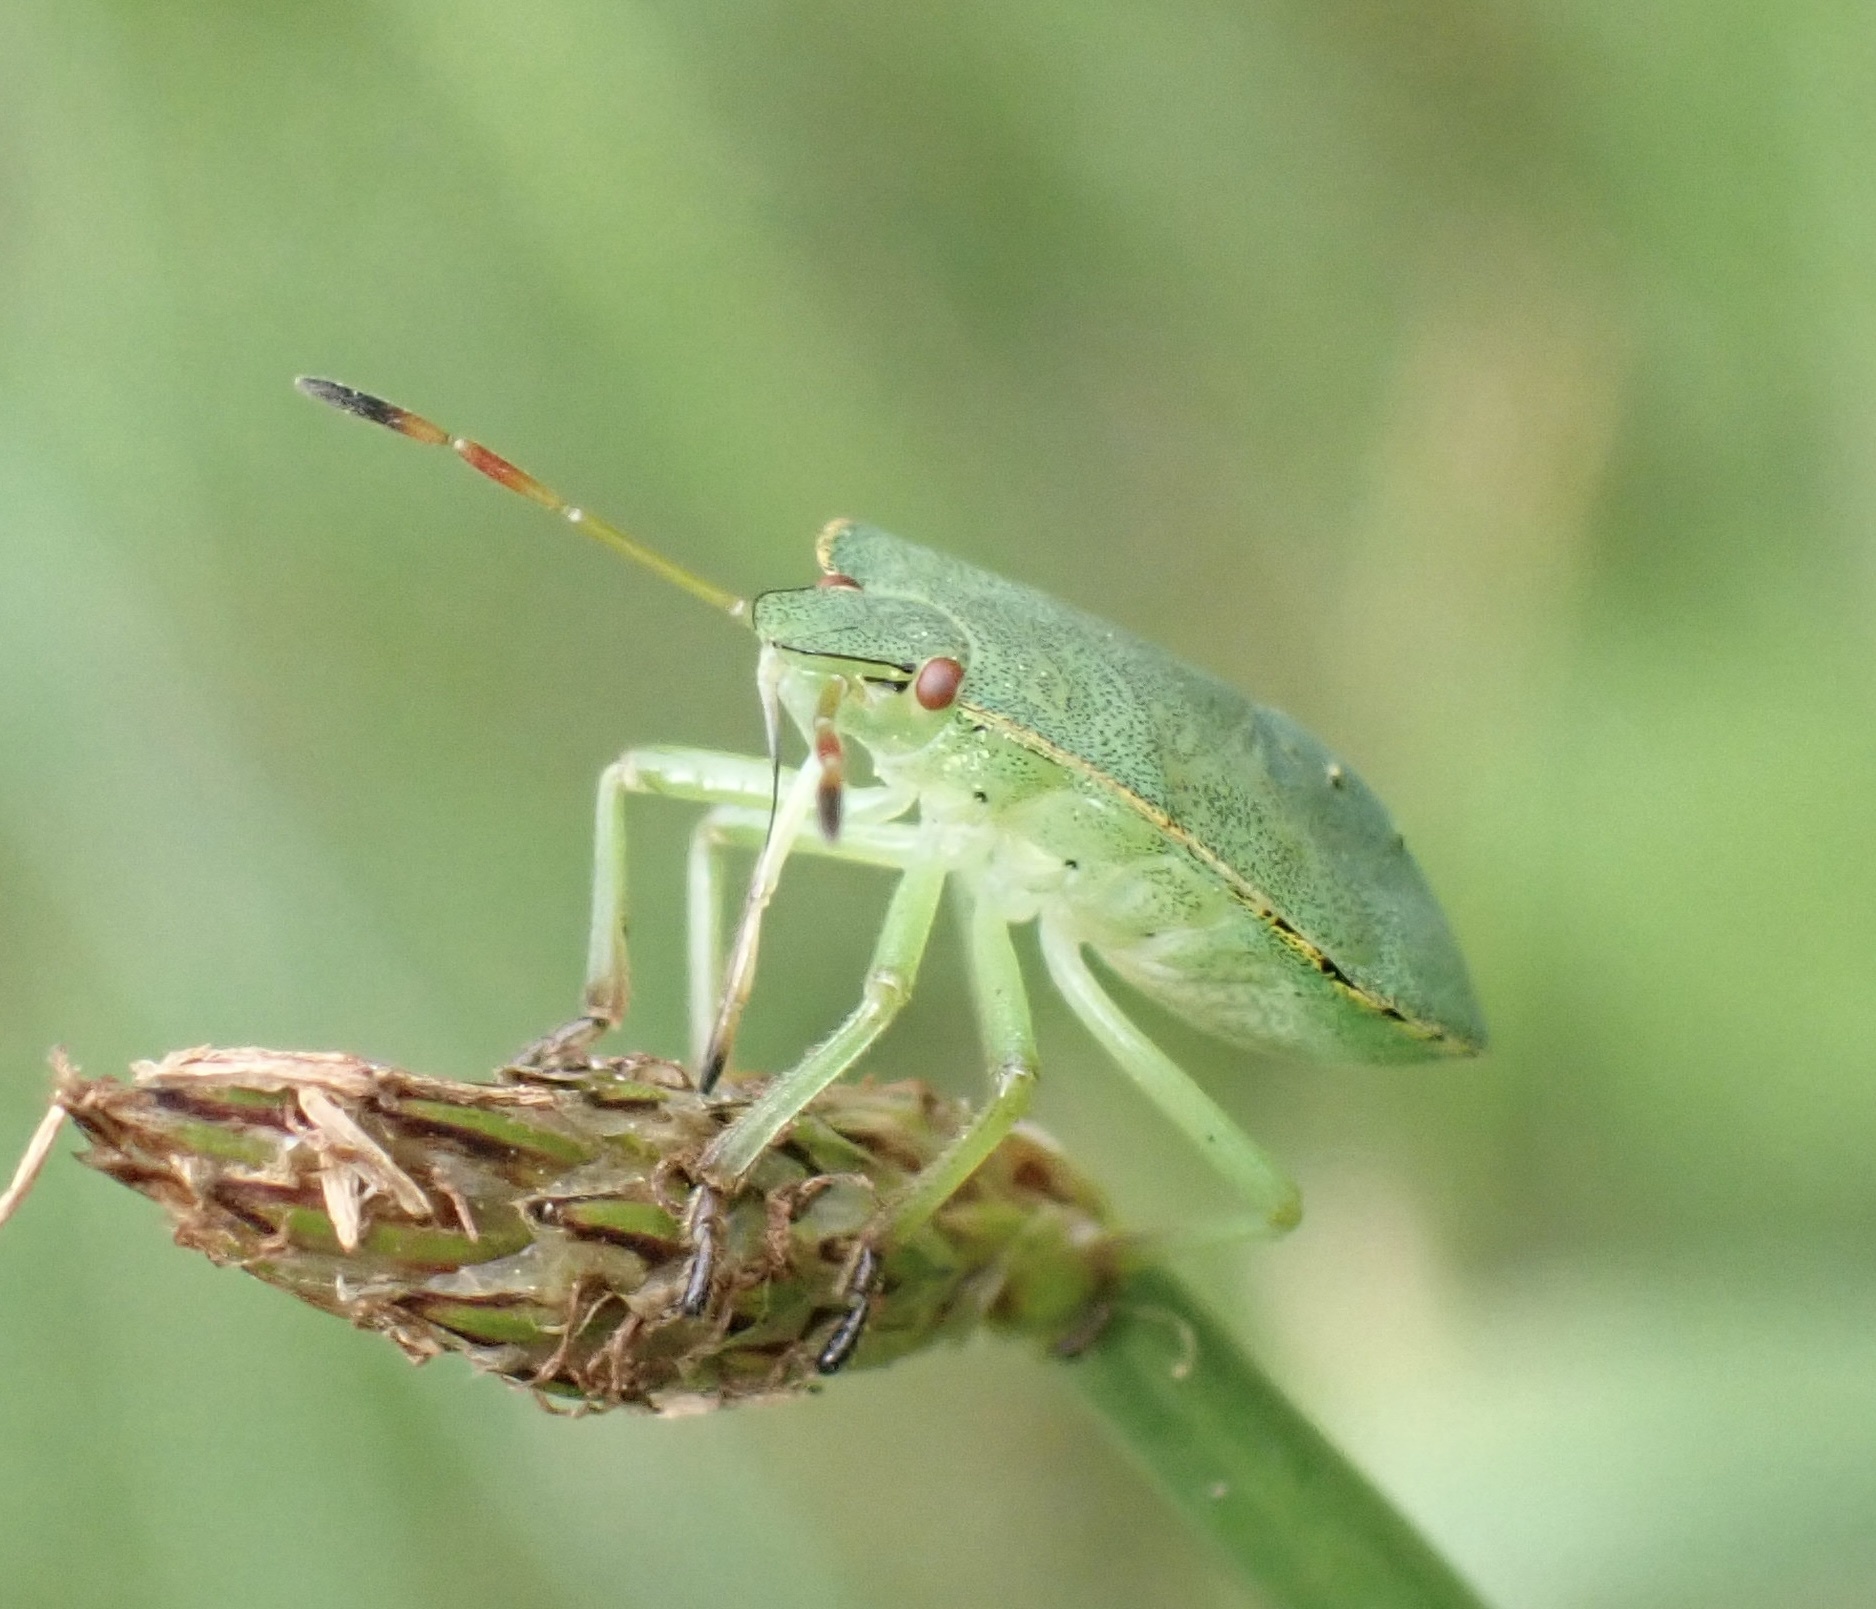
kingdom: Animalia
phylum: Arthropoda
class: Insecta
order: Hemiptera
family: Pentatomidae
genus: Palomena
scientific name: Palomena prasina
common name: Green shieldbug
